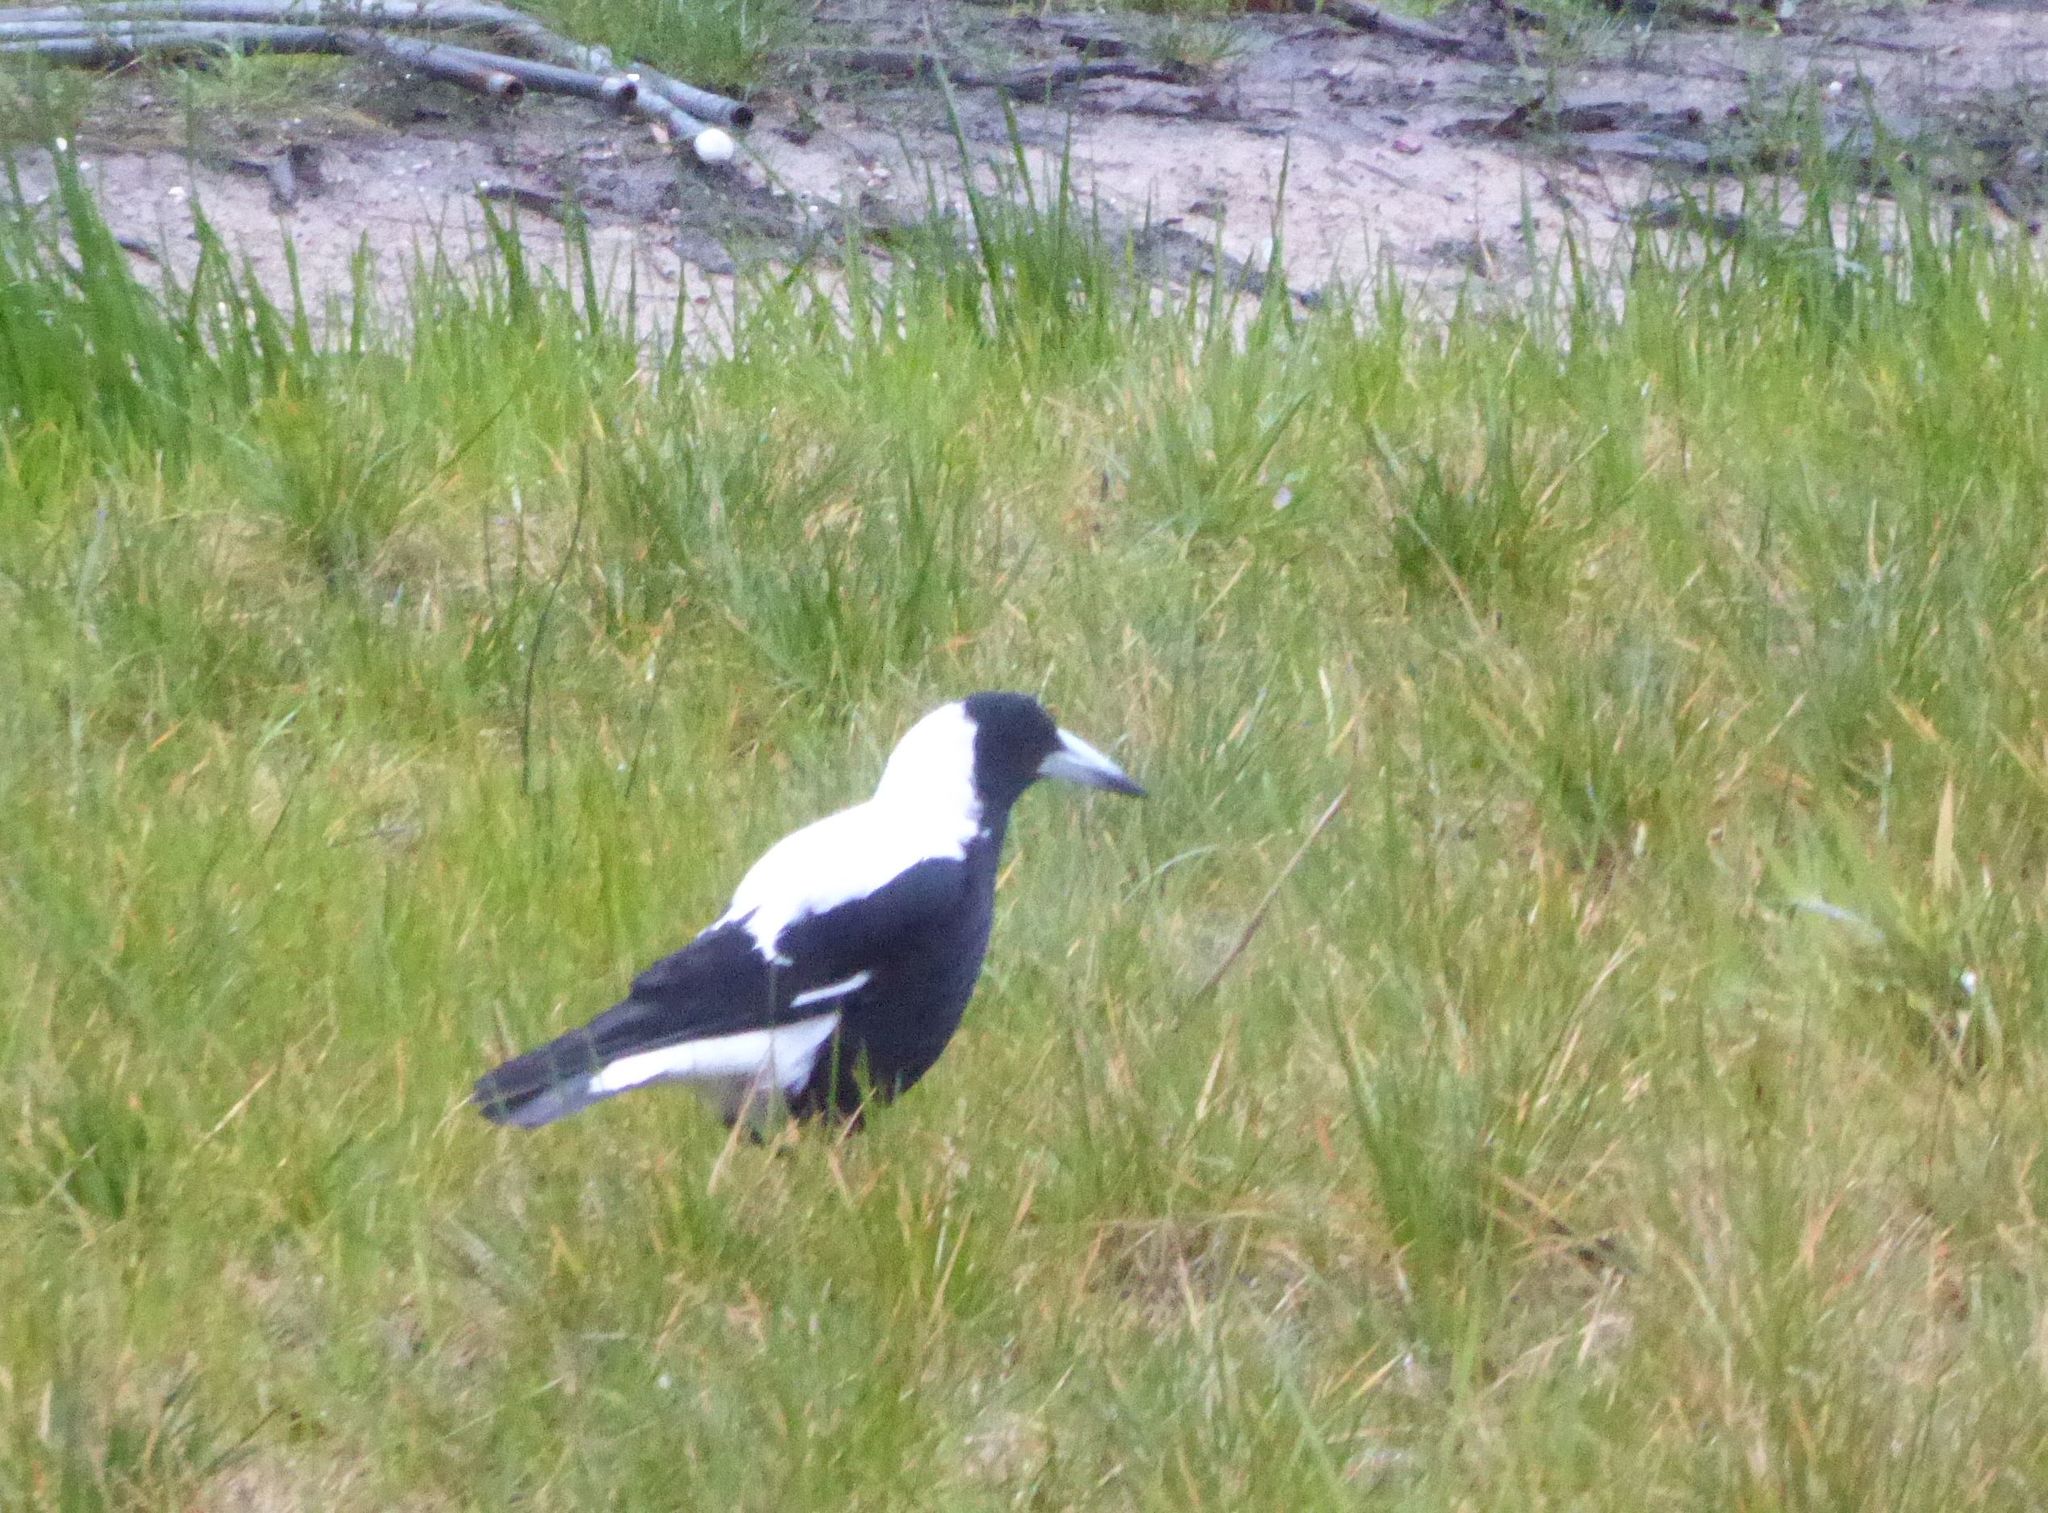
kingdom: Animalia
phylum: Chordata
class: Aves
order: Passeriformes
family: Cracticidae
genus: Gymnorhina
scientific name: Gymnorhina tibicen
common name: Australian magpie
